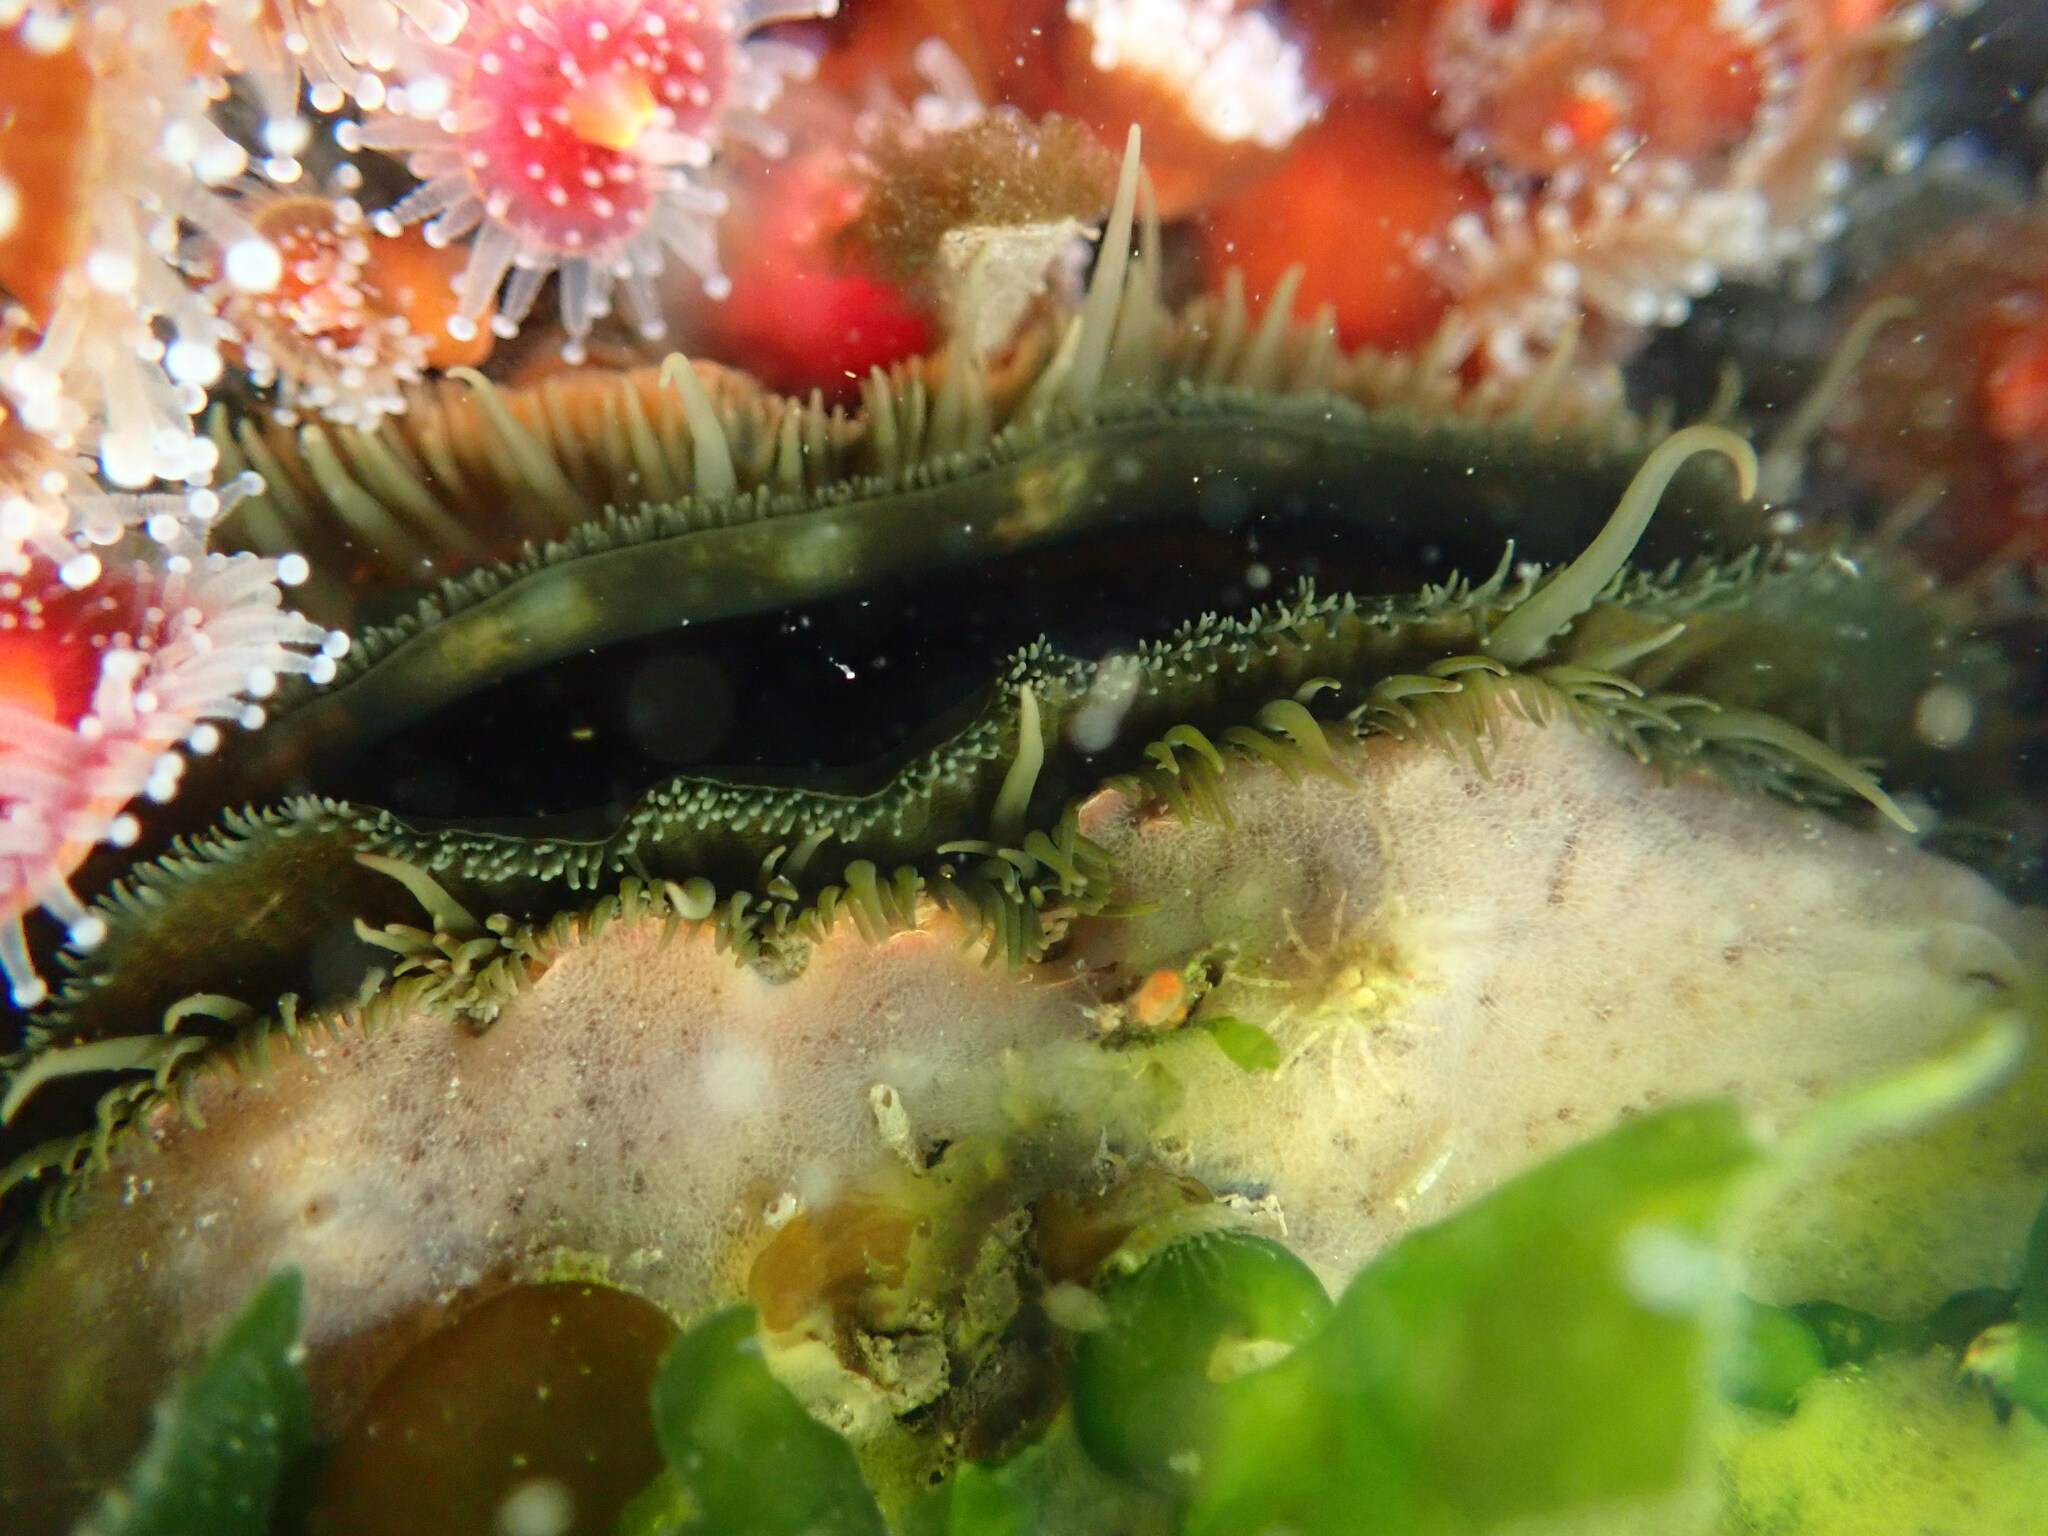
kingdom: Animalia
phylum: Mollusca
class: Bivalvia
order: Pectinida
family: Pectinidae
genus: Crassadoma
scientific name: Crassadoma gigantea
